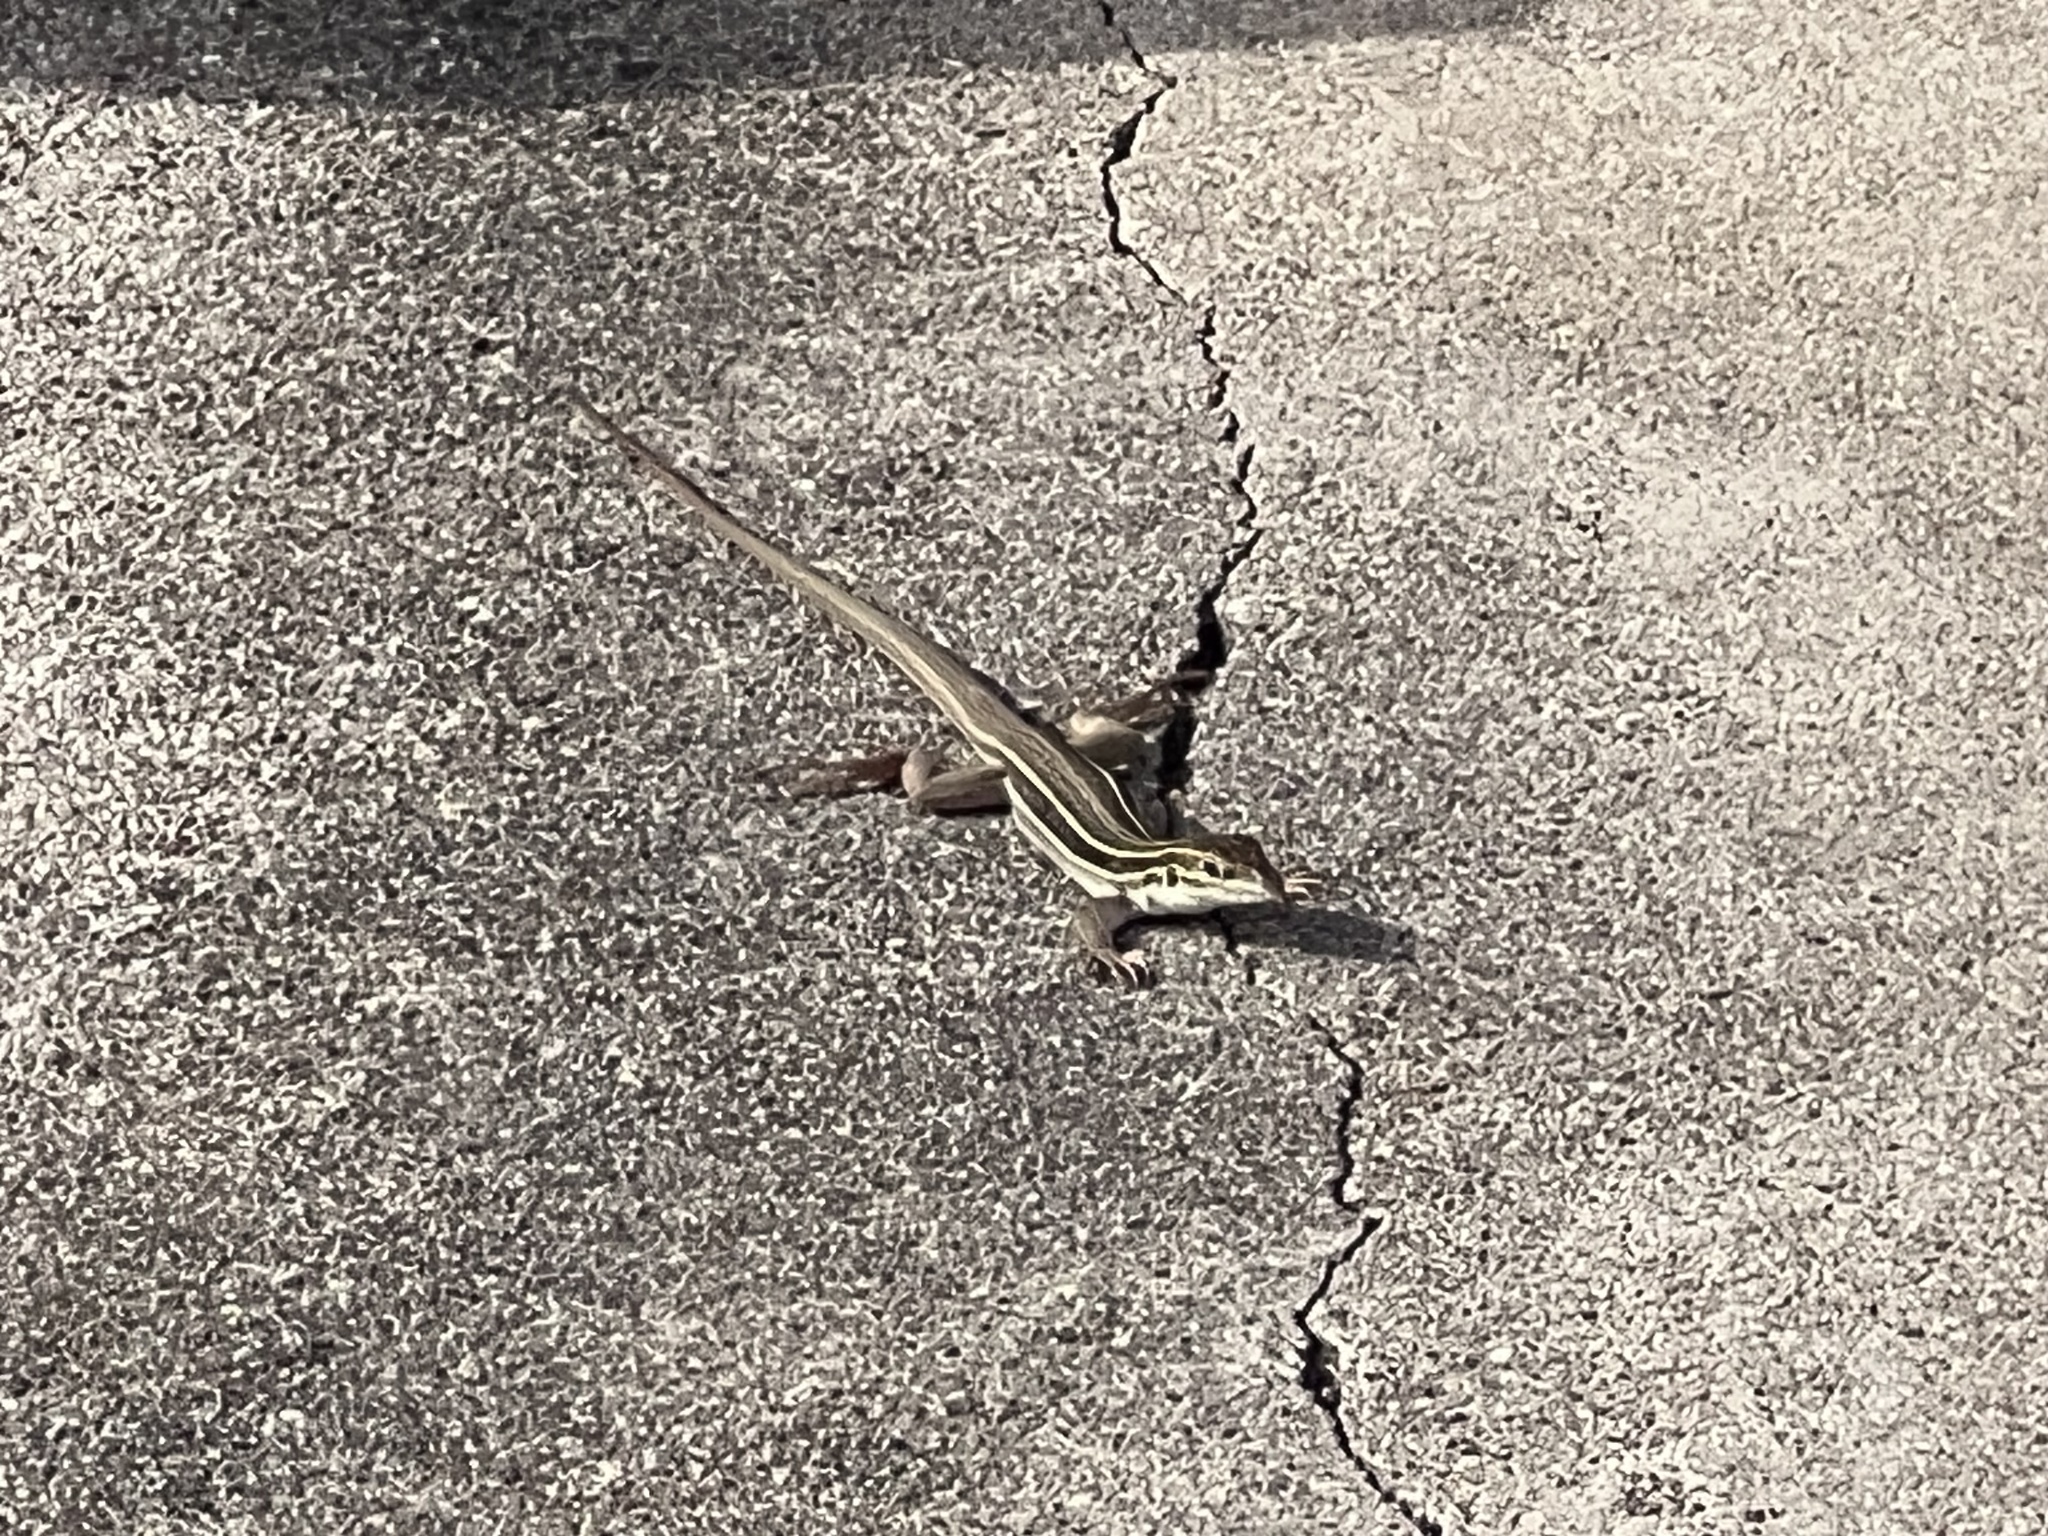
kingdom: Animalia
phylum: Chordata
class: Squamata
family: Teiidae
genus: Aspidoscelis
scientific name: Aspidoscelis sonorae
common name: Sonoran spotted whiptail
